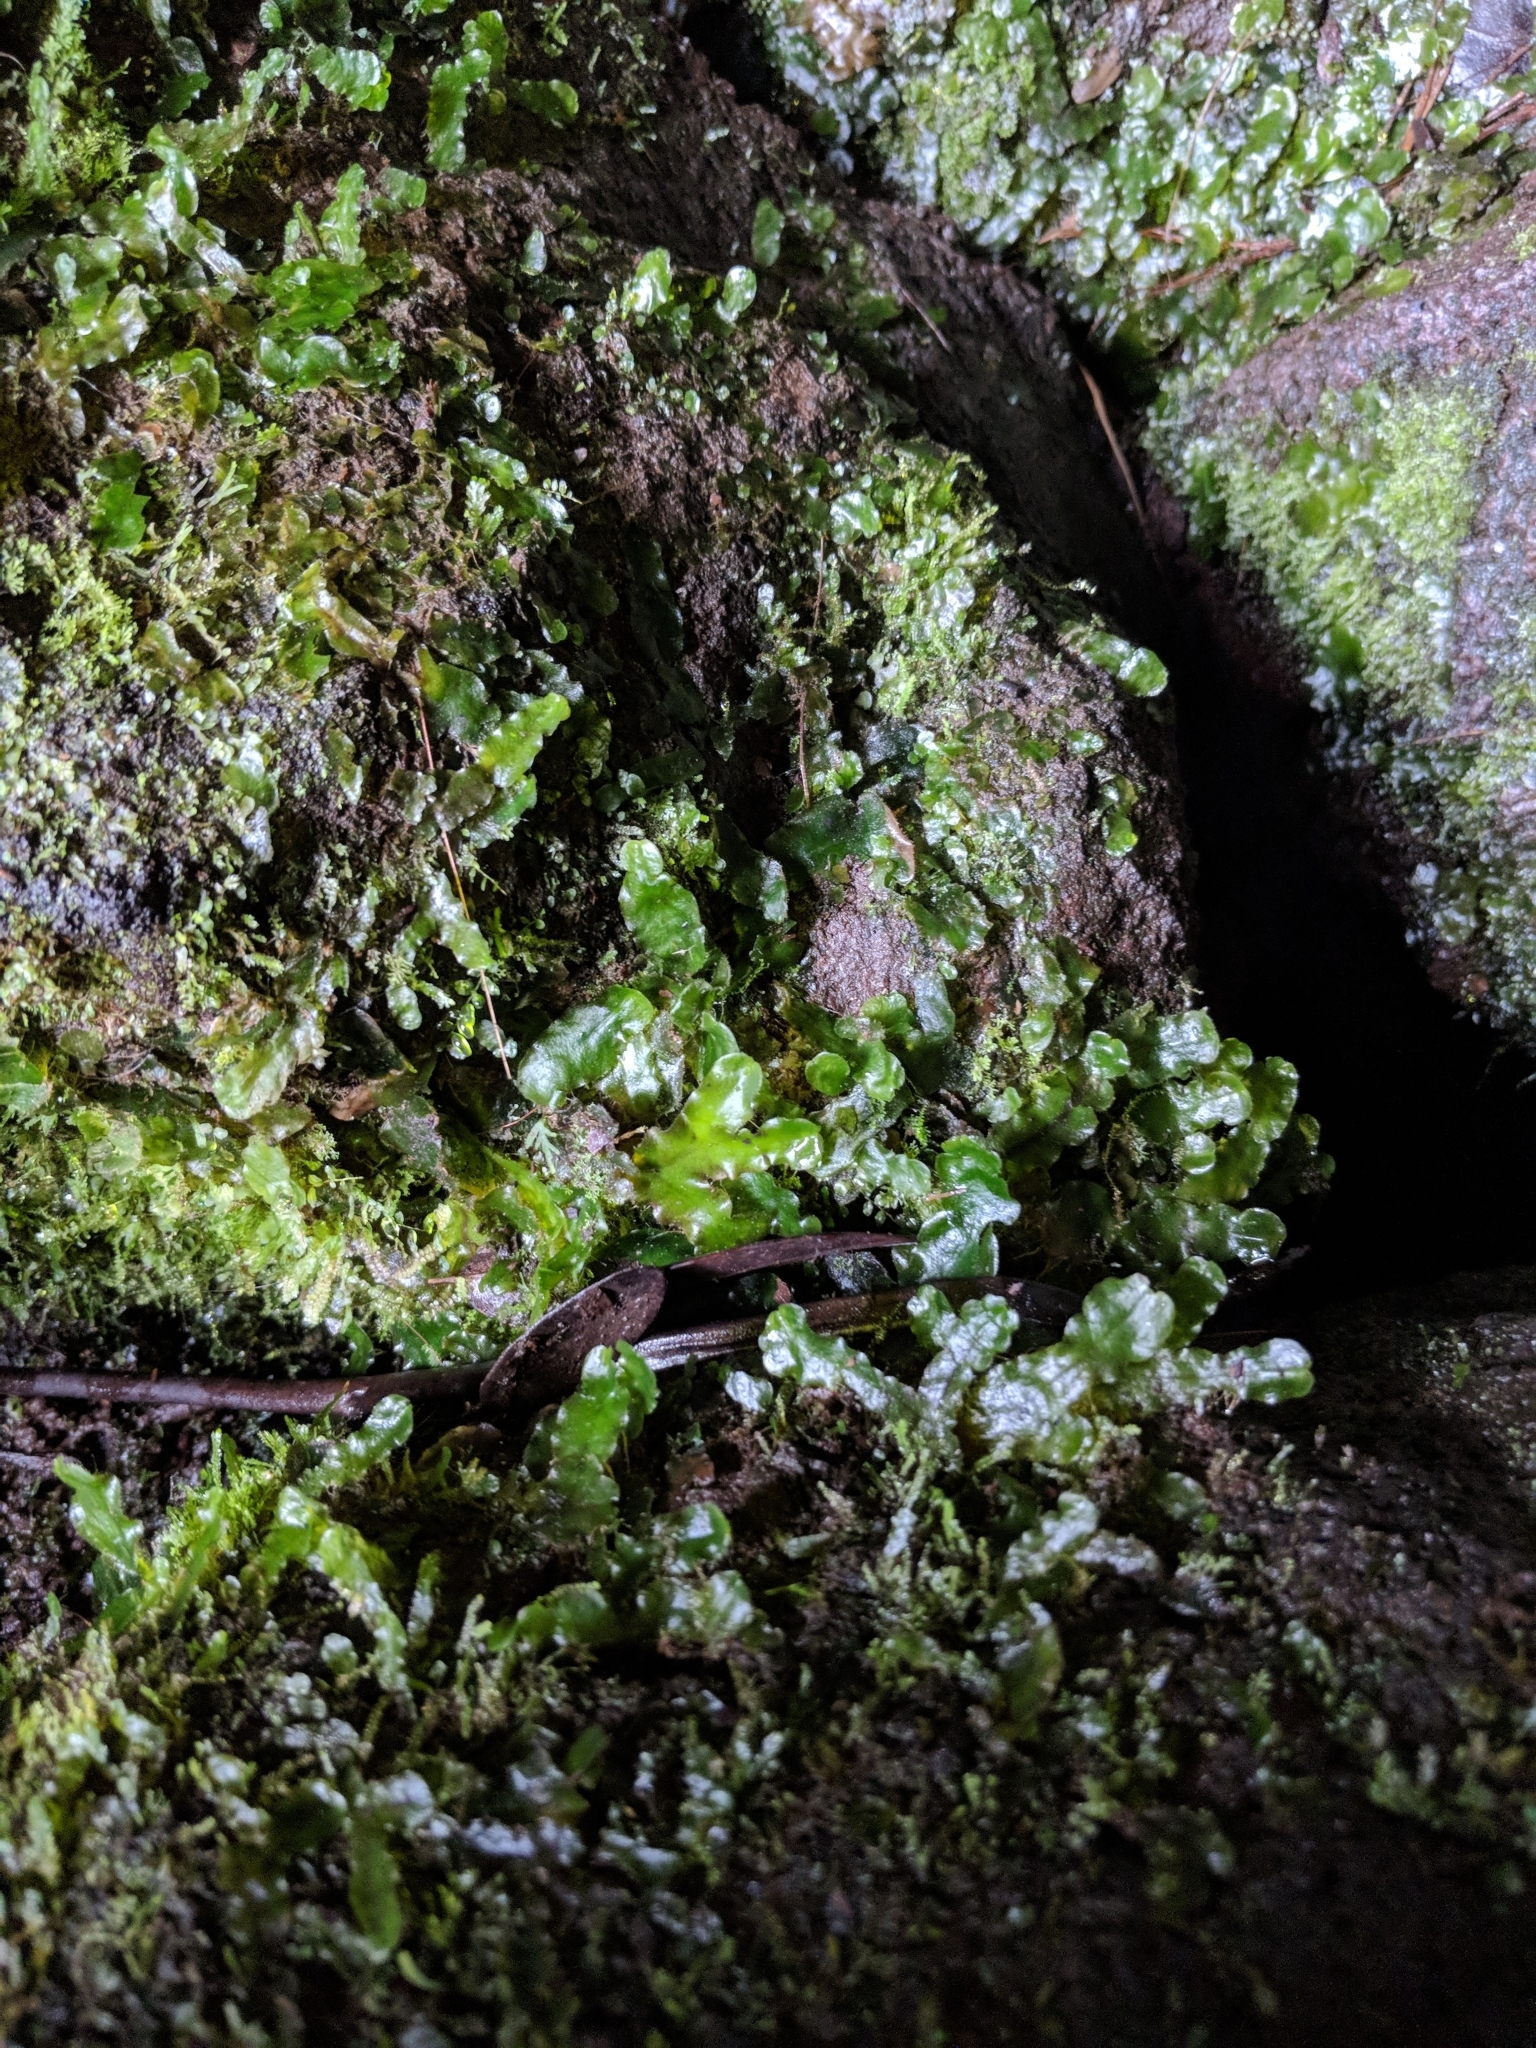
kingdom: Plantae
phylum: Marchantiophyta
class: Marchantiopsida
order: Marchantiales
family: Dumortieraceae
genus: Dumortiera
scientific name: Dumortiera hirsuta
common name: Dumortier's liverwort
